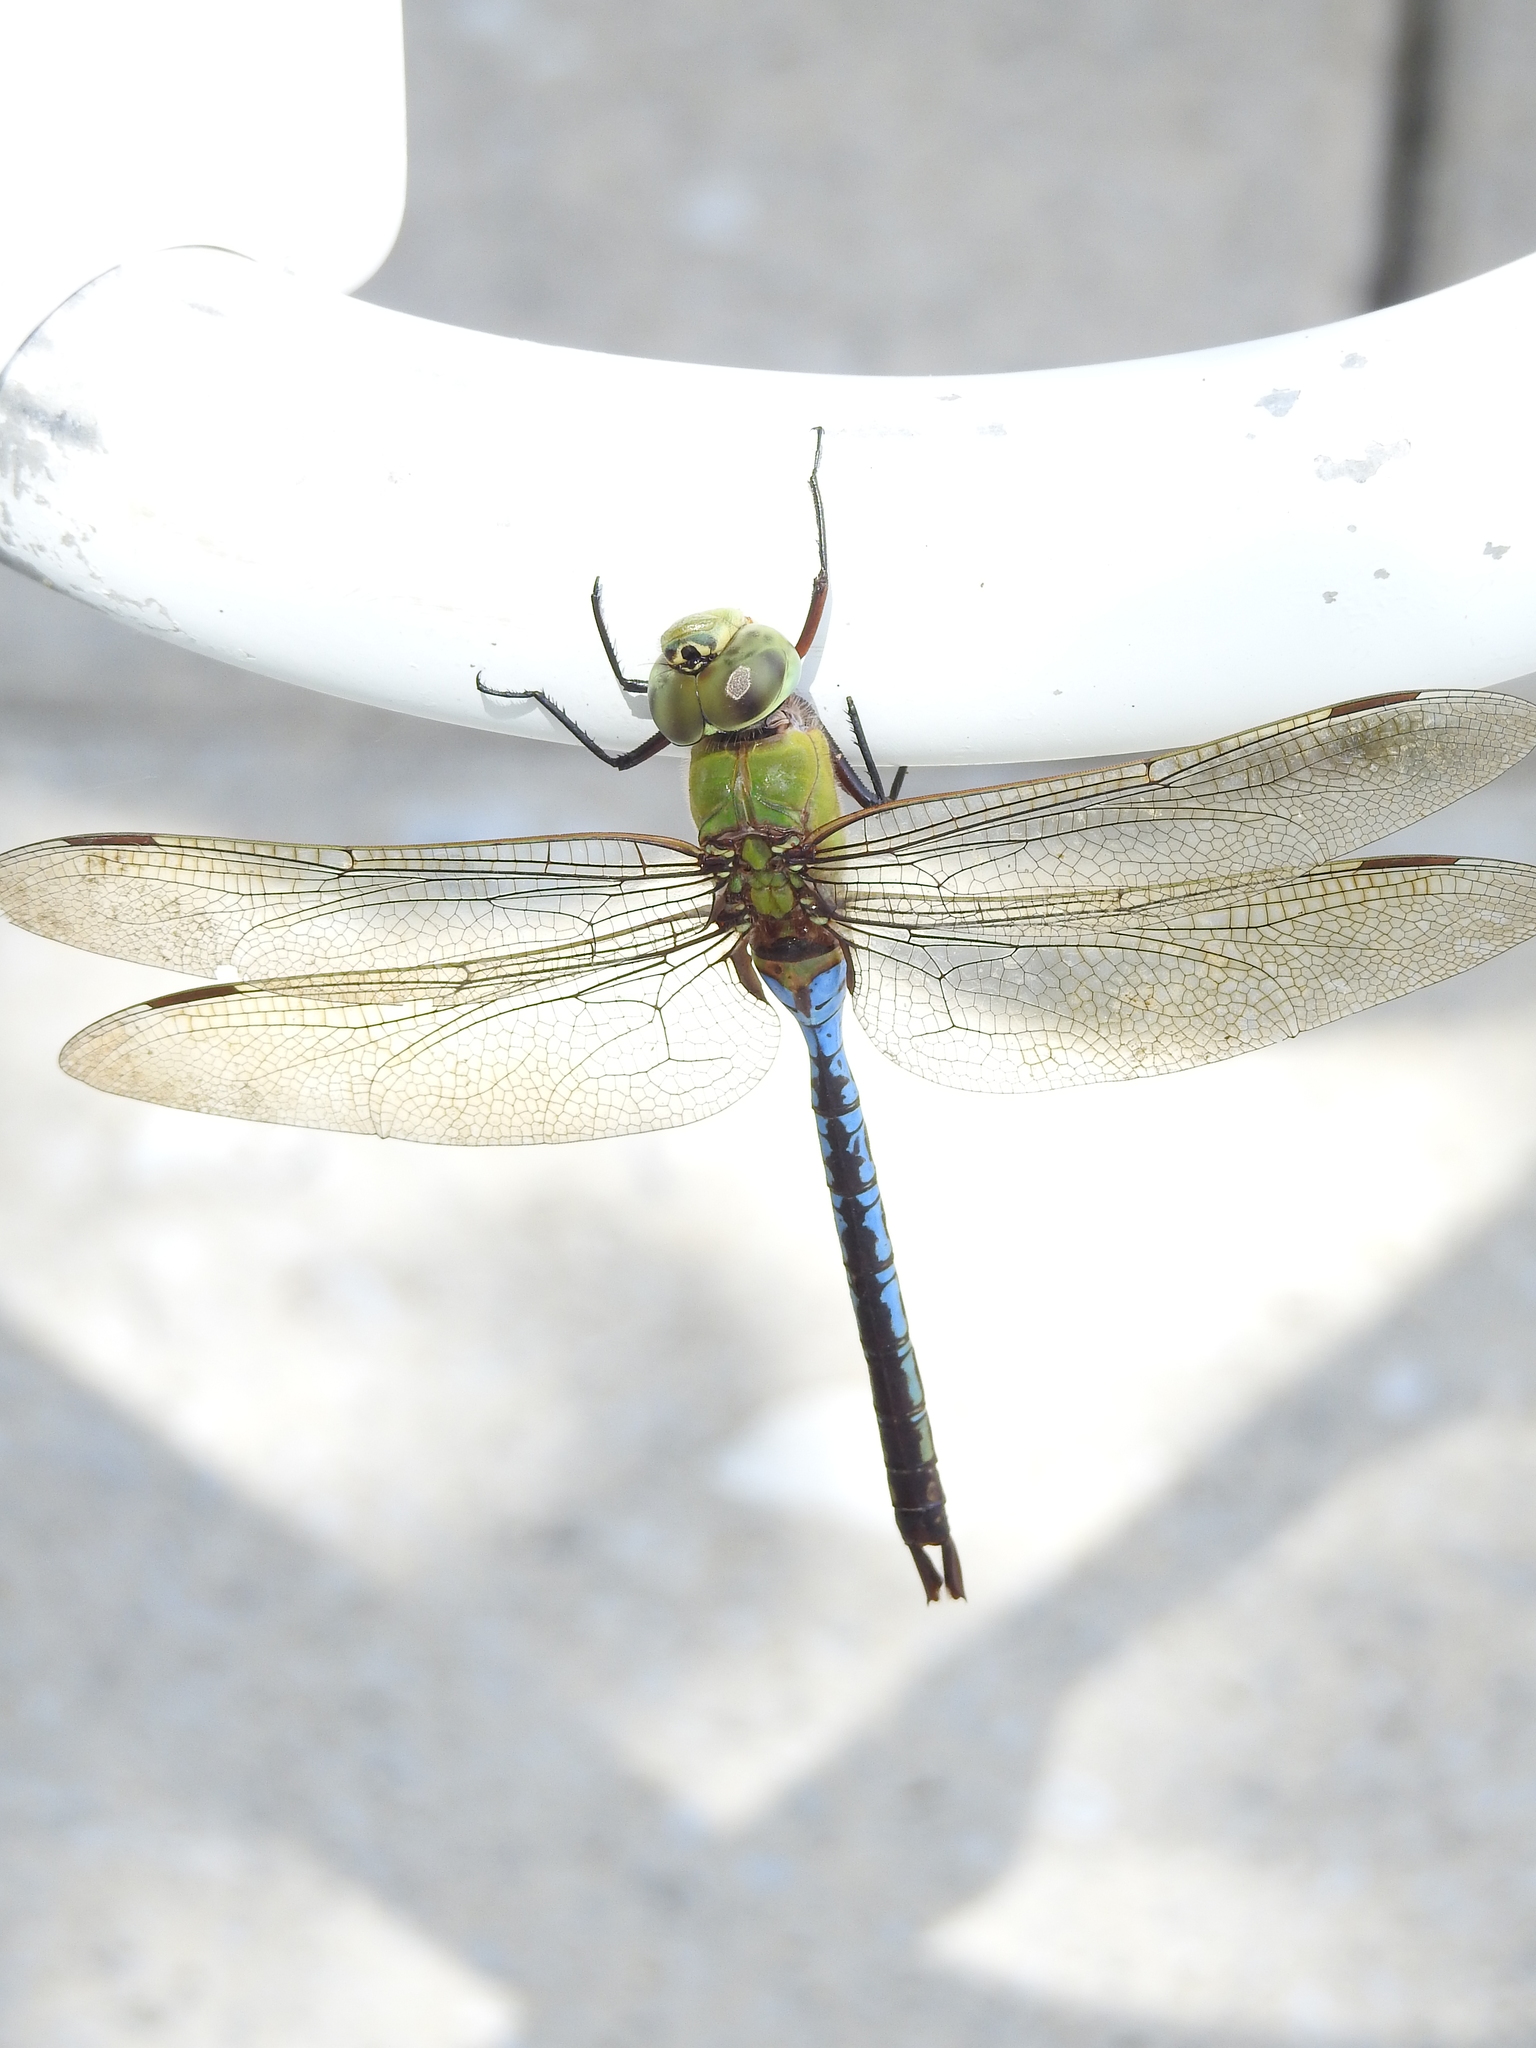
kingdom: Animalia
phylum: Arthropoda
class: Insecta
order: Odonata
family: Aeshnidae
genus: Anax
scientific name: Anax junius
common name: Common green darner
